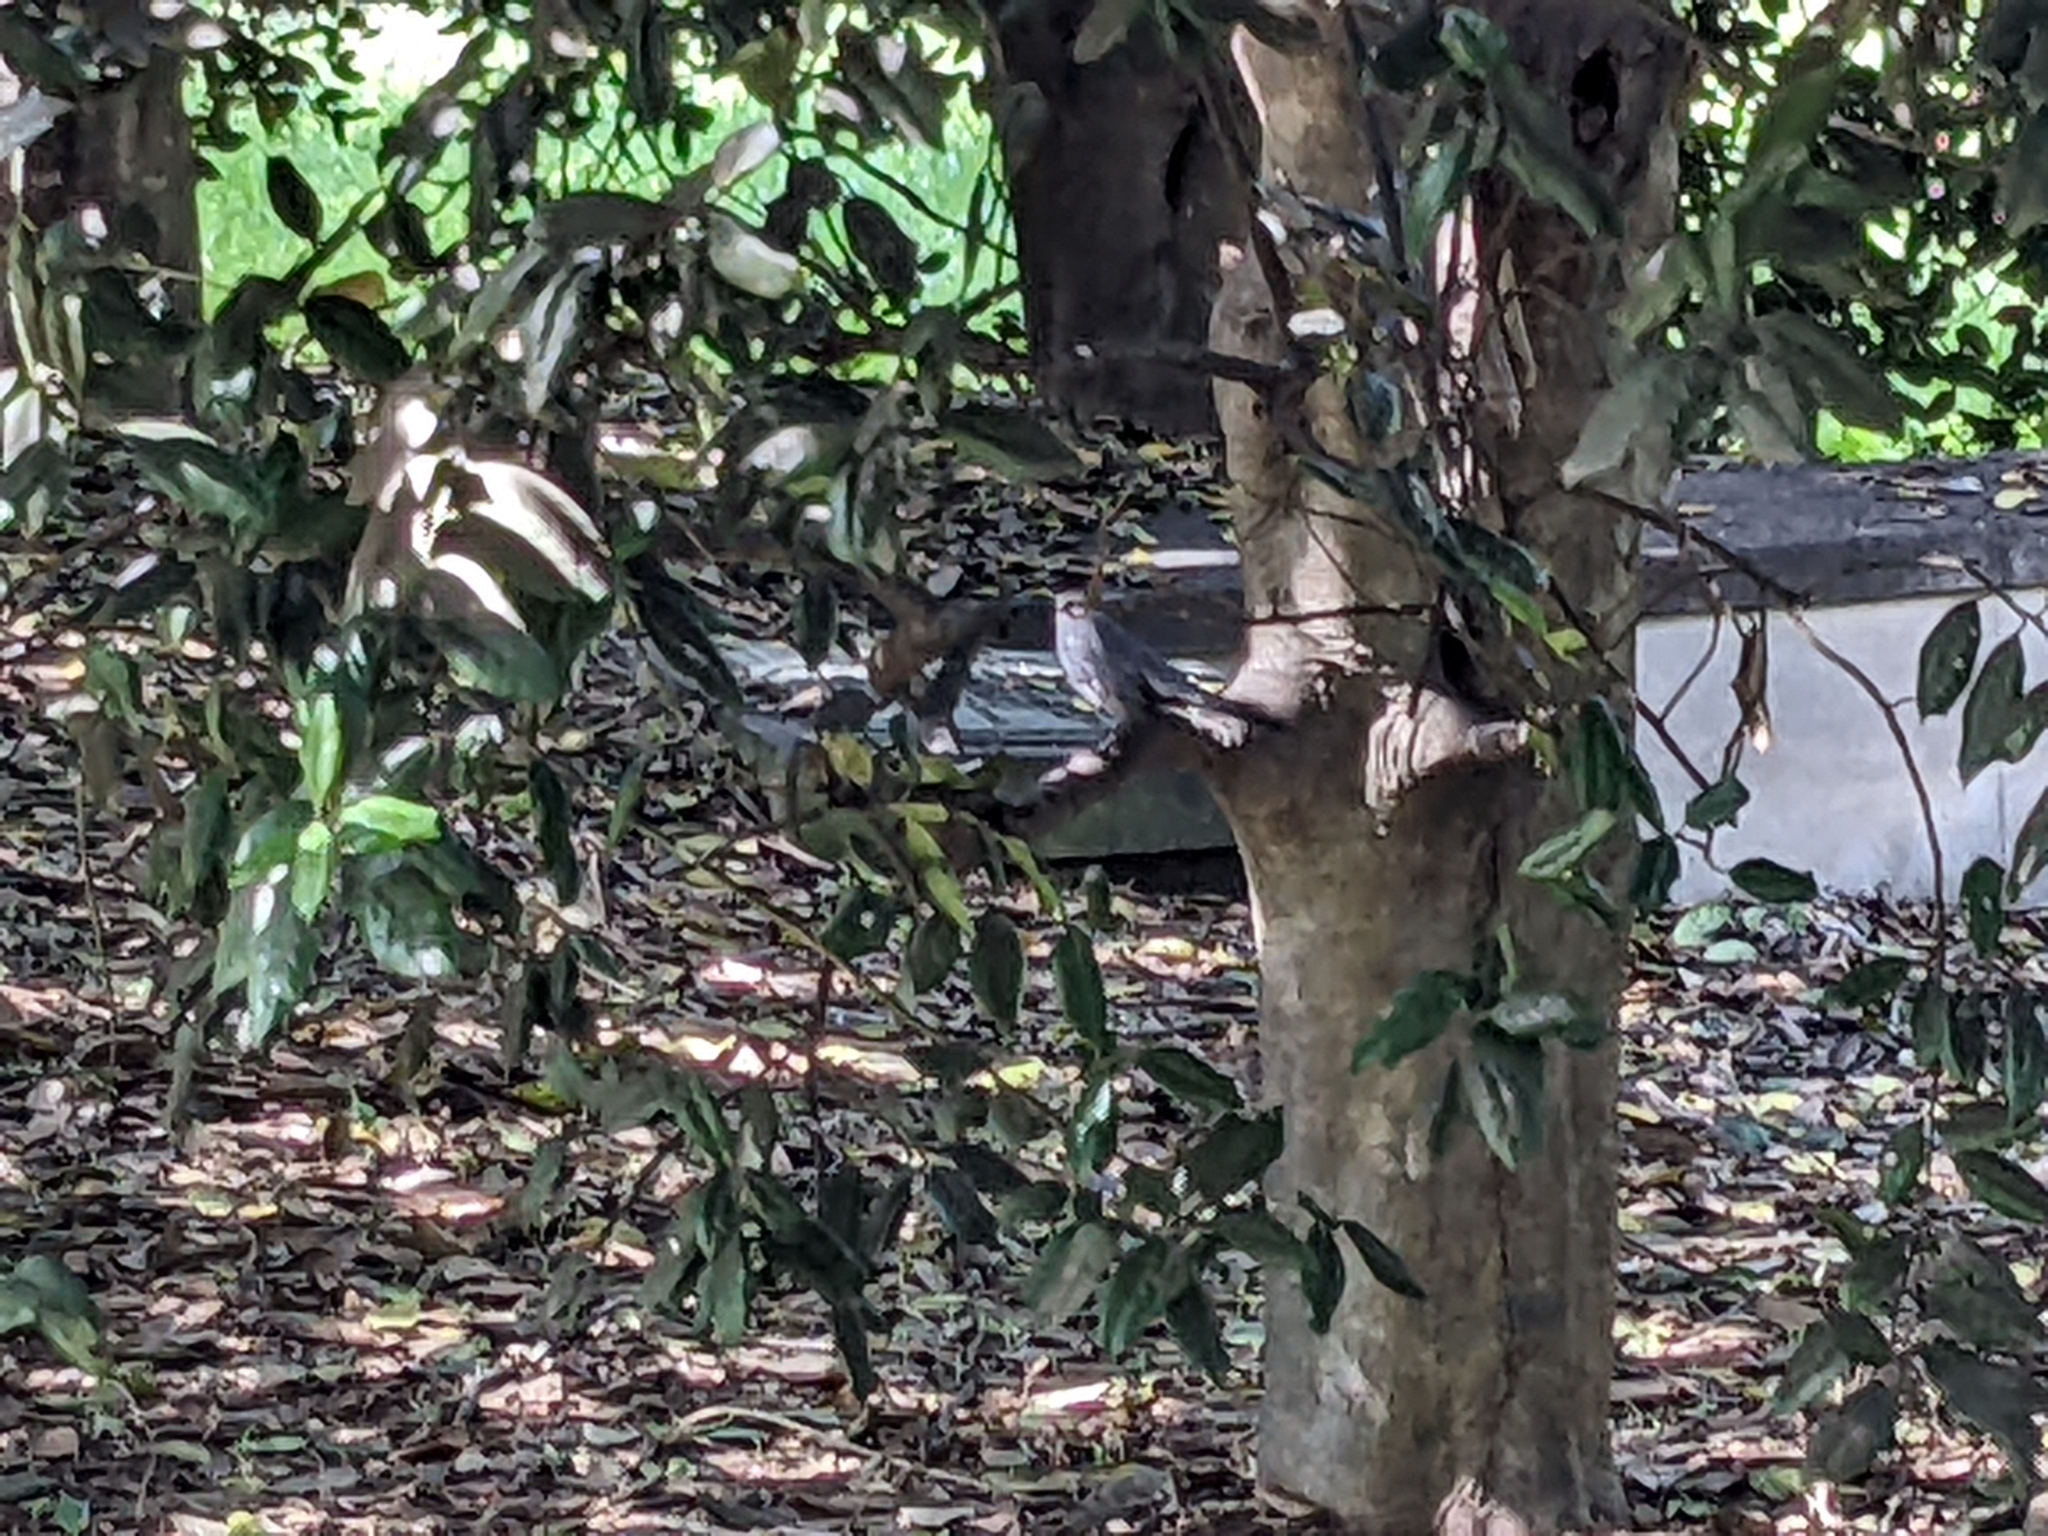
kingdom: Animalia
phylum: Chordata
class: Aves
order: Passeriformes
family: Mimidae
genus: Dumetella
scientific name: Dumetella carolinensis
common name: Gray catbird
